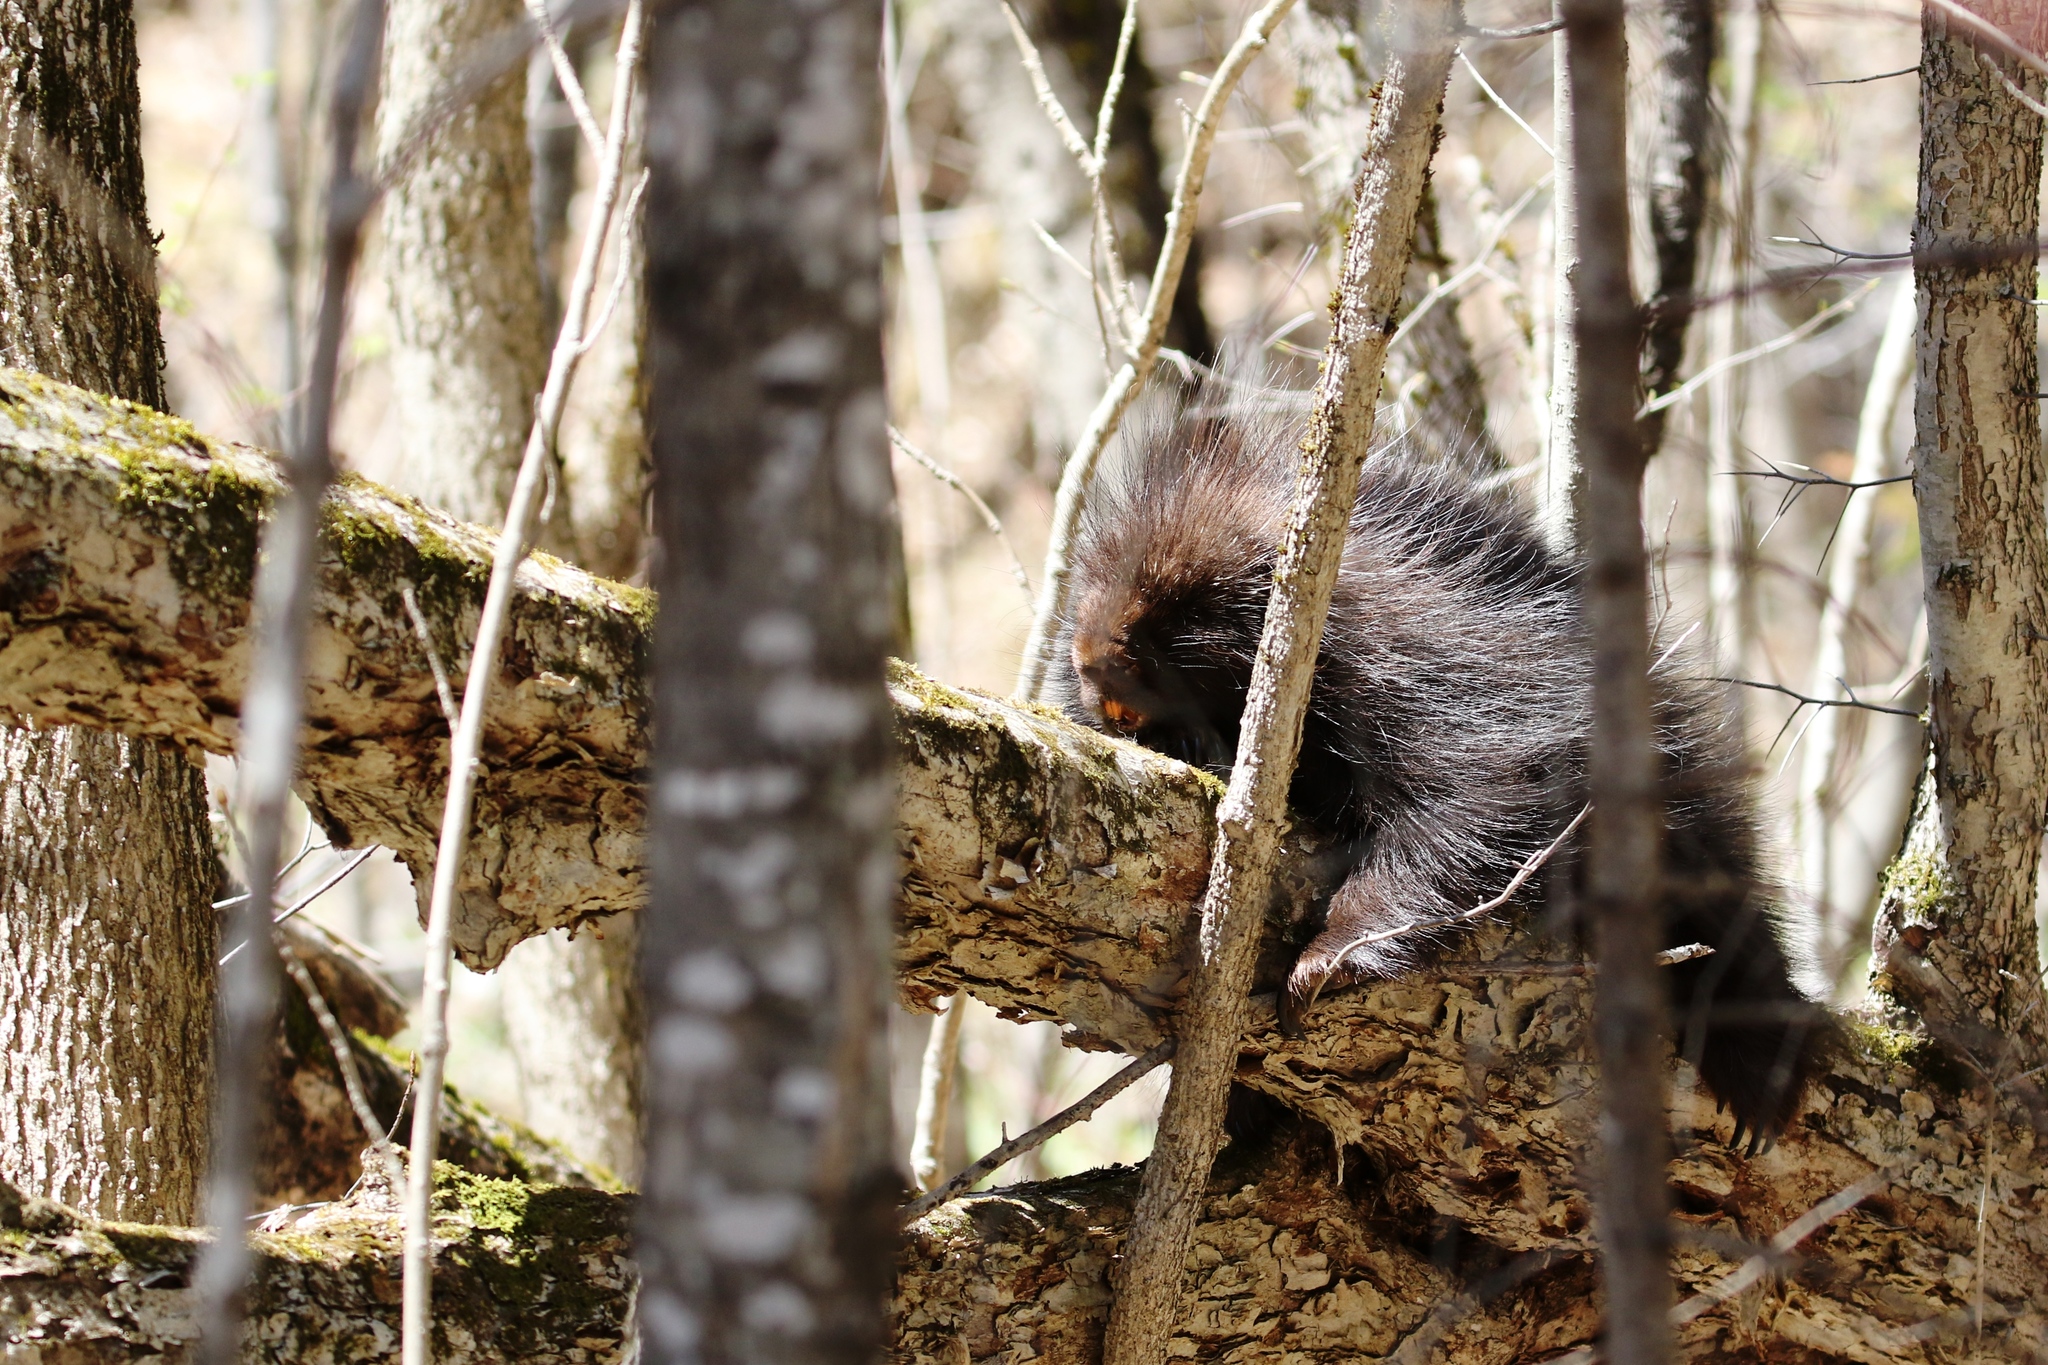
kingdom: Animalia
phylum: Chordata
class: Mammalia
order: Rodentia
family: Erethizontidae
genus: Erethizon
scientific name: Erethizon dorsatus
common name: North american porcupine
